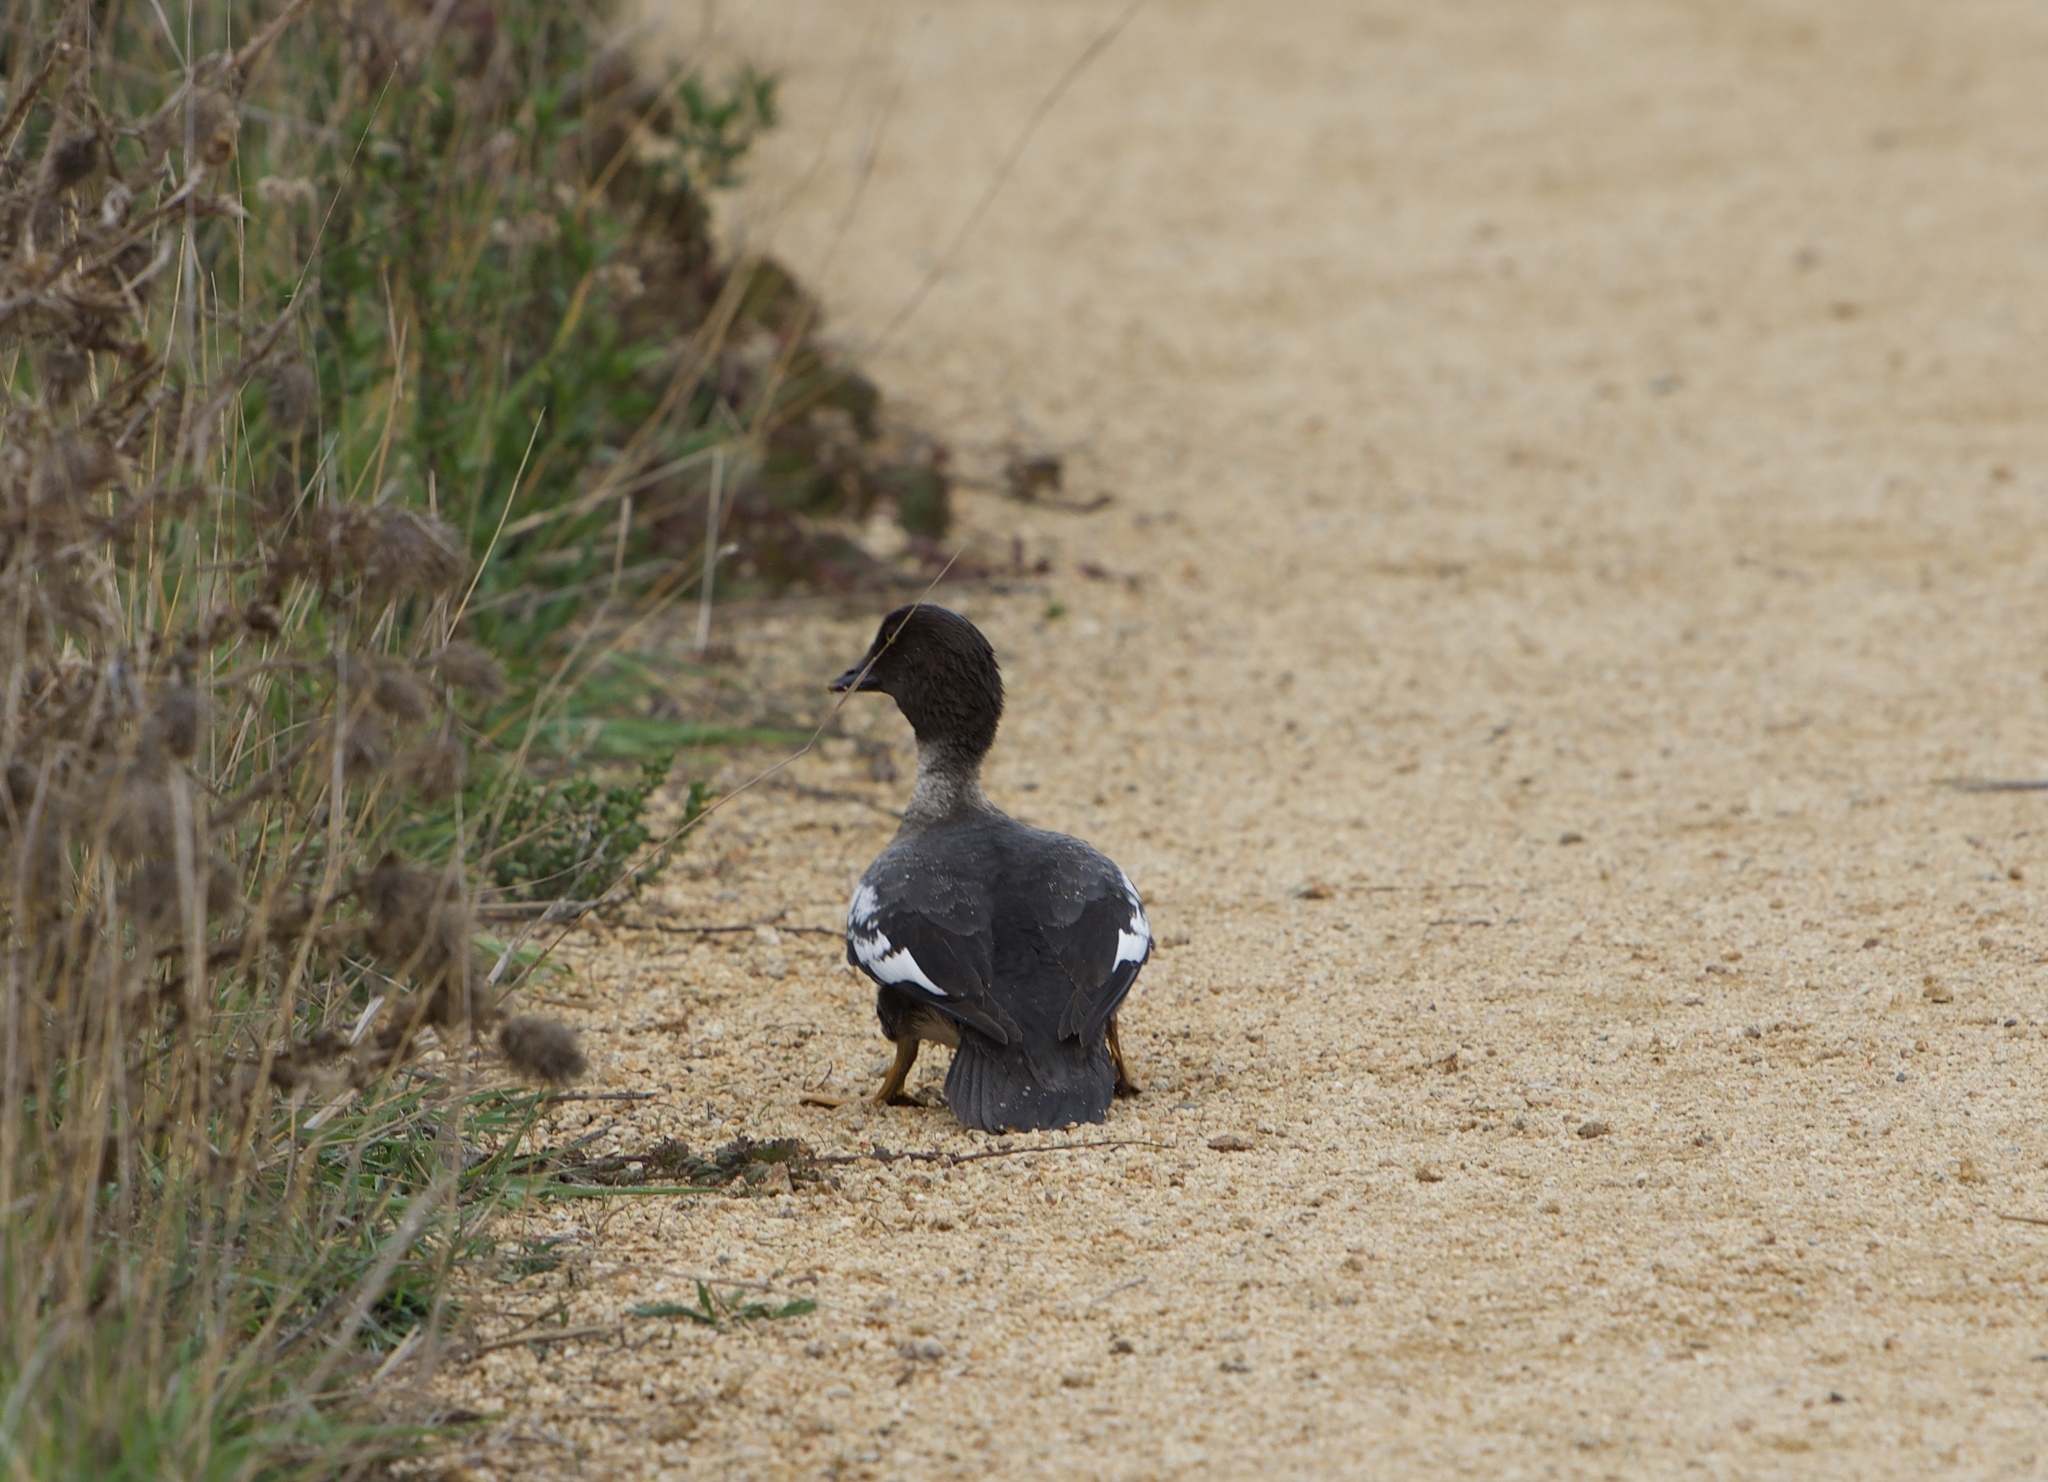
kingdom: Animalia
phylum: Chordata
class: Aves
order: Anseriformes
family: Anatidae
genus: Bucephala
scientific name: Bucephala clangula
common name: Common goldeneye
